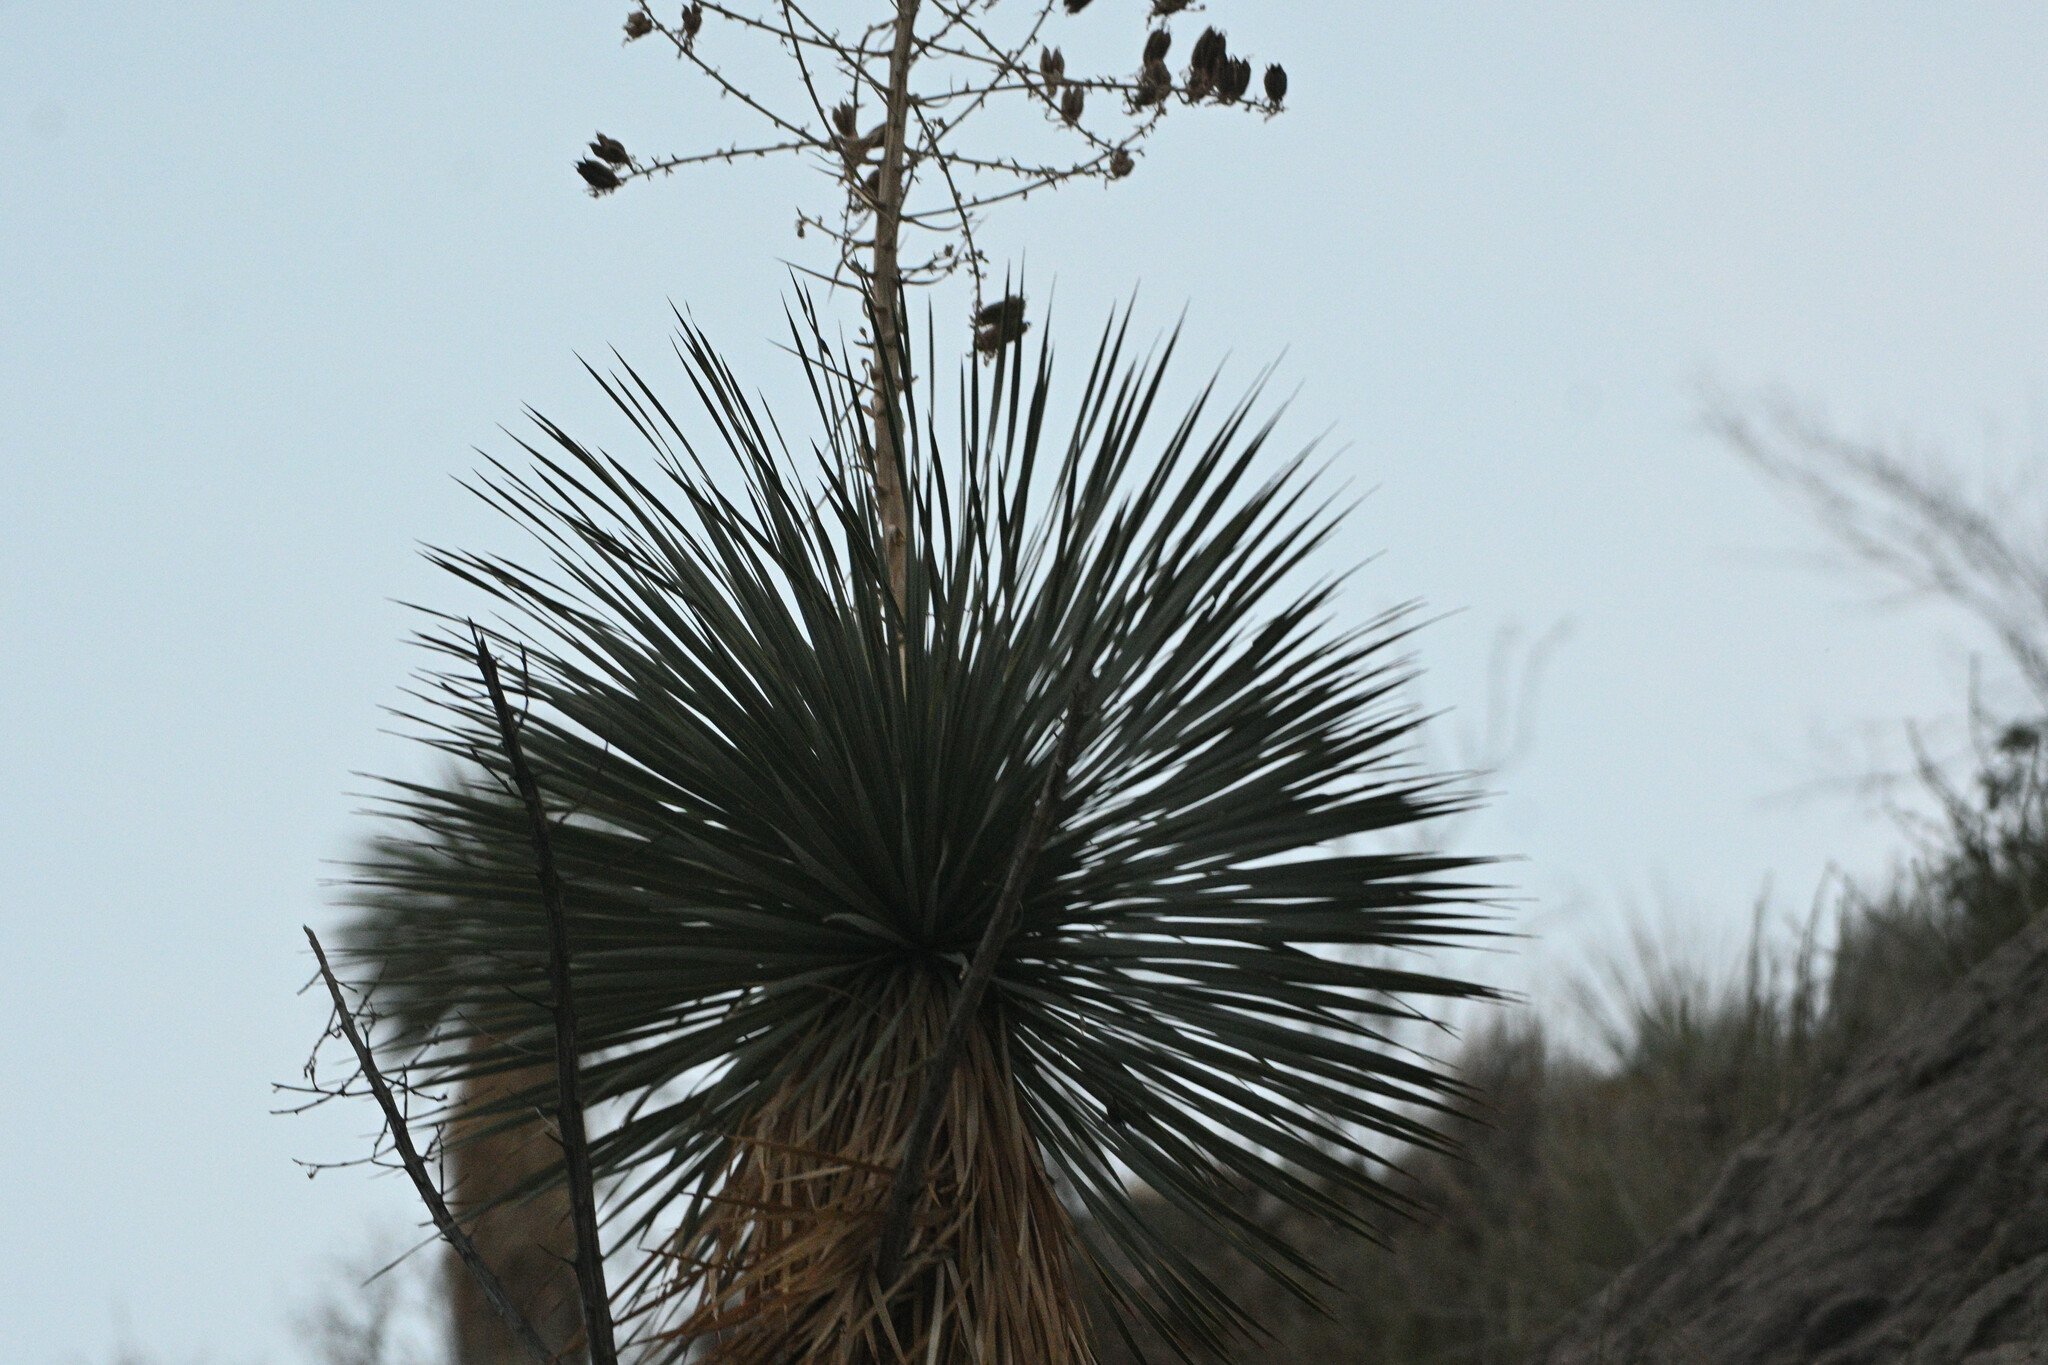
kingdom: Plantae
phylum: Tracheophyta
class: Liliopsida
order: Asparagales
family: Asparagaceae
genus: Yucca
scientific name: Yucca rostrata
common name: Big bend yucca
